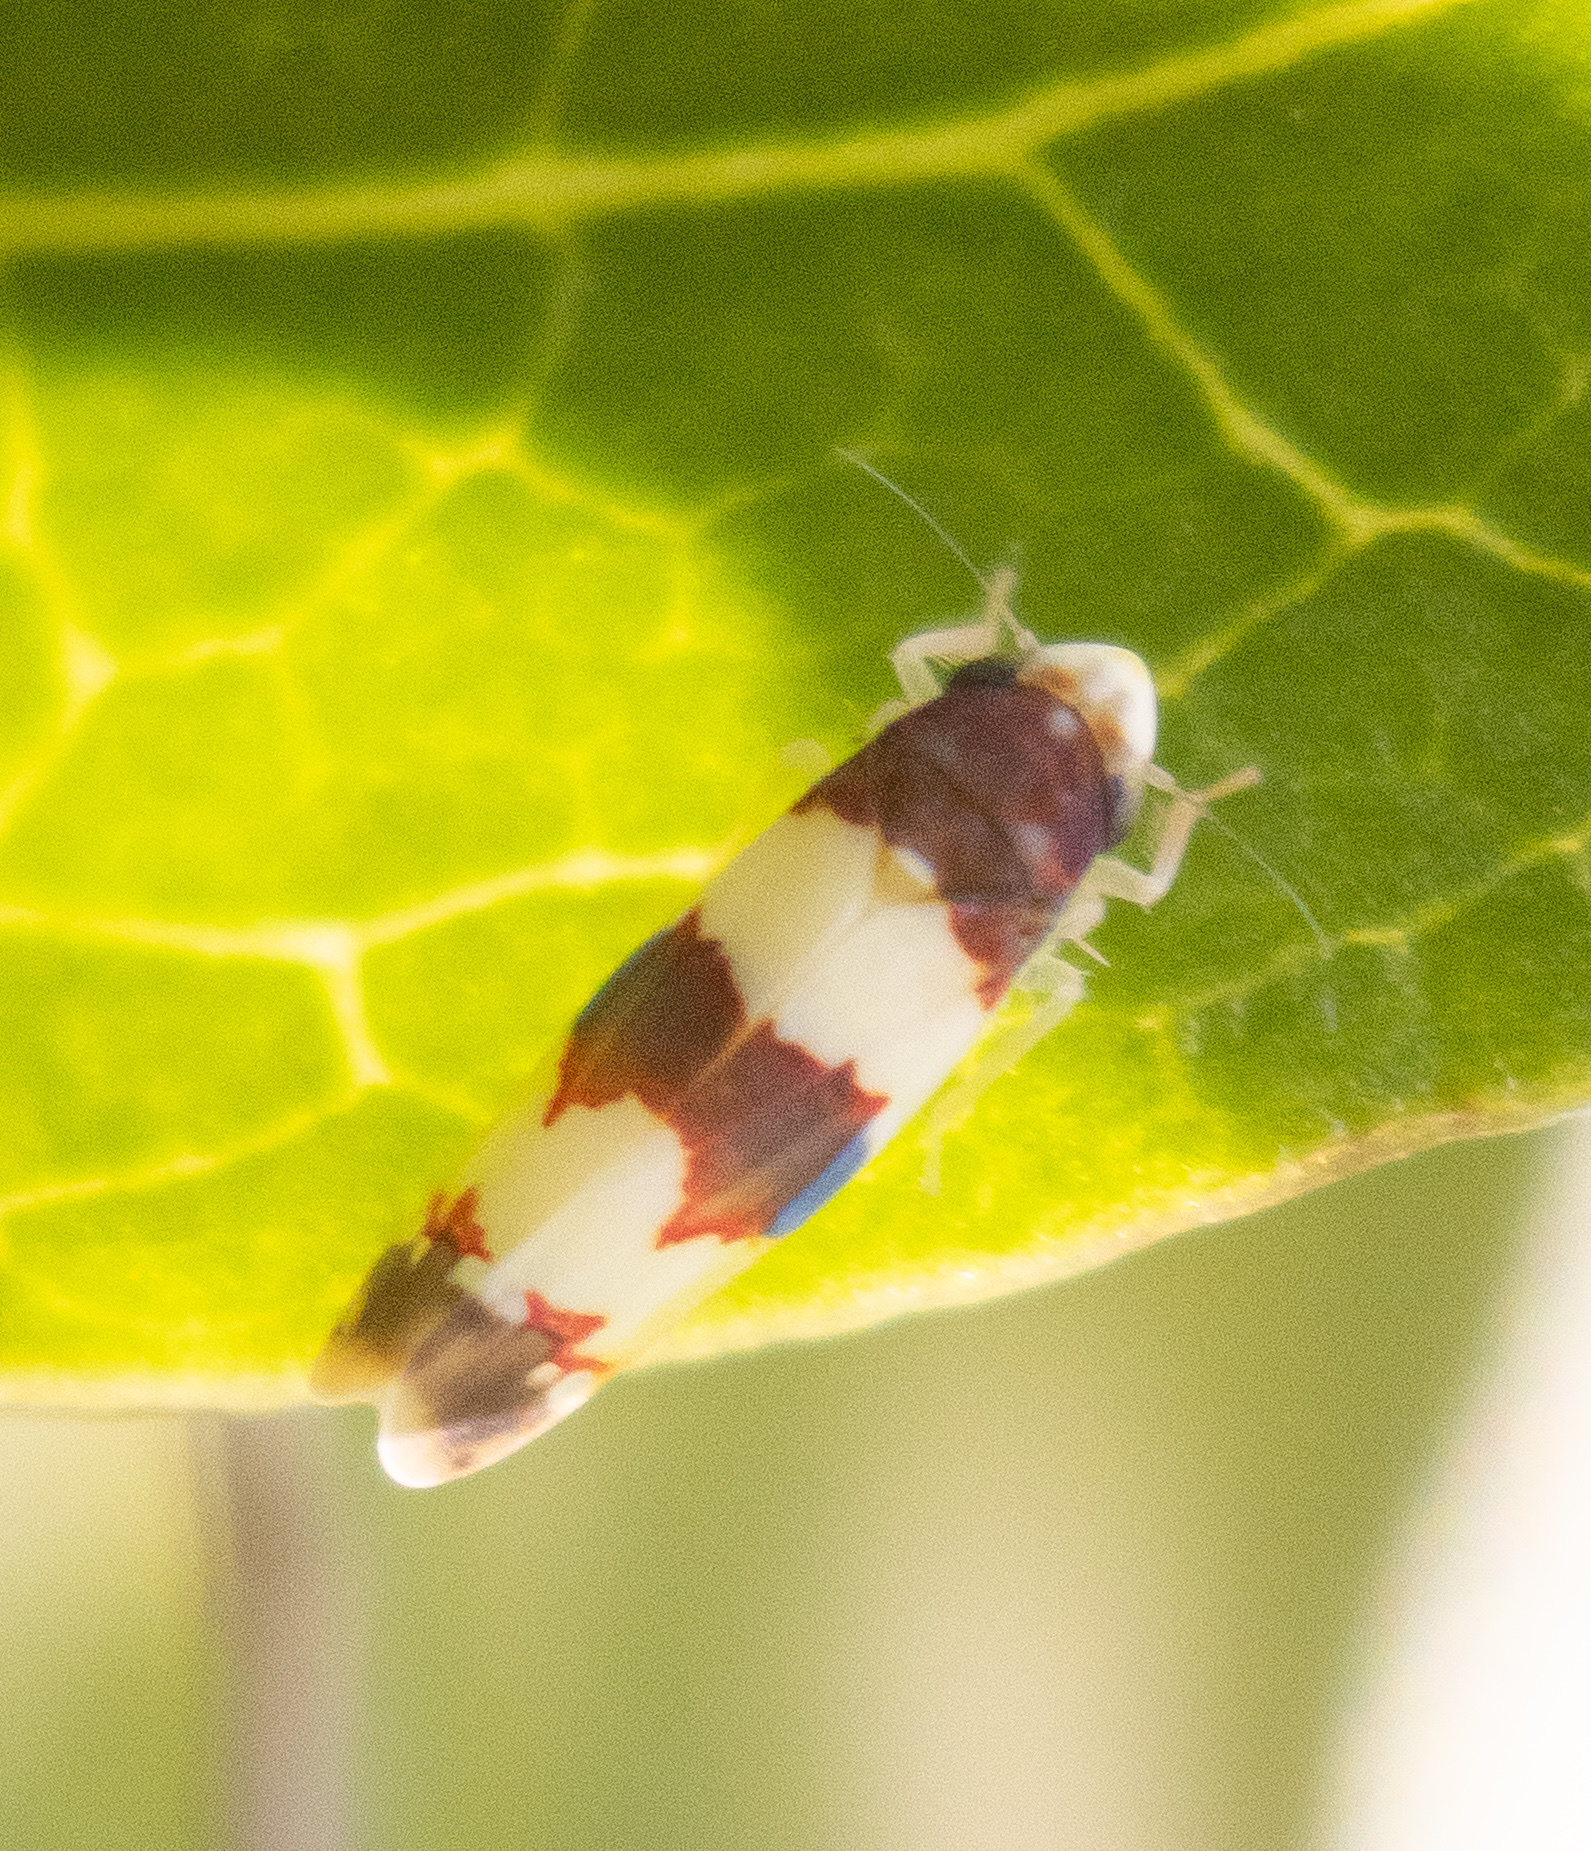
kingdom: Animalia
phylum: Arthropoda
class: Insecta
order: Hemiptera
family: Cicadellidae
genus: Erythroneura
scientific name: Erythroneura bistrata
